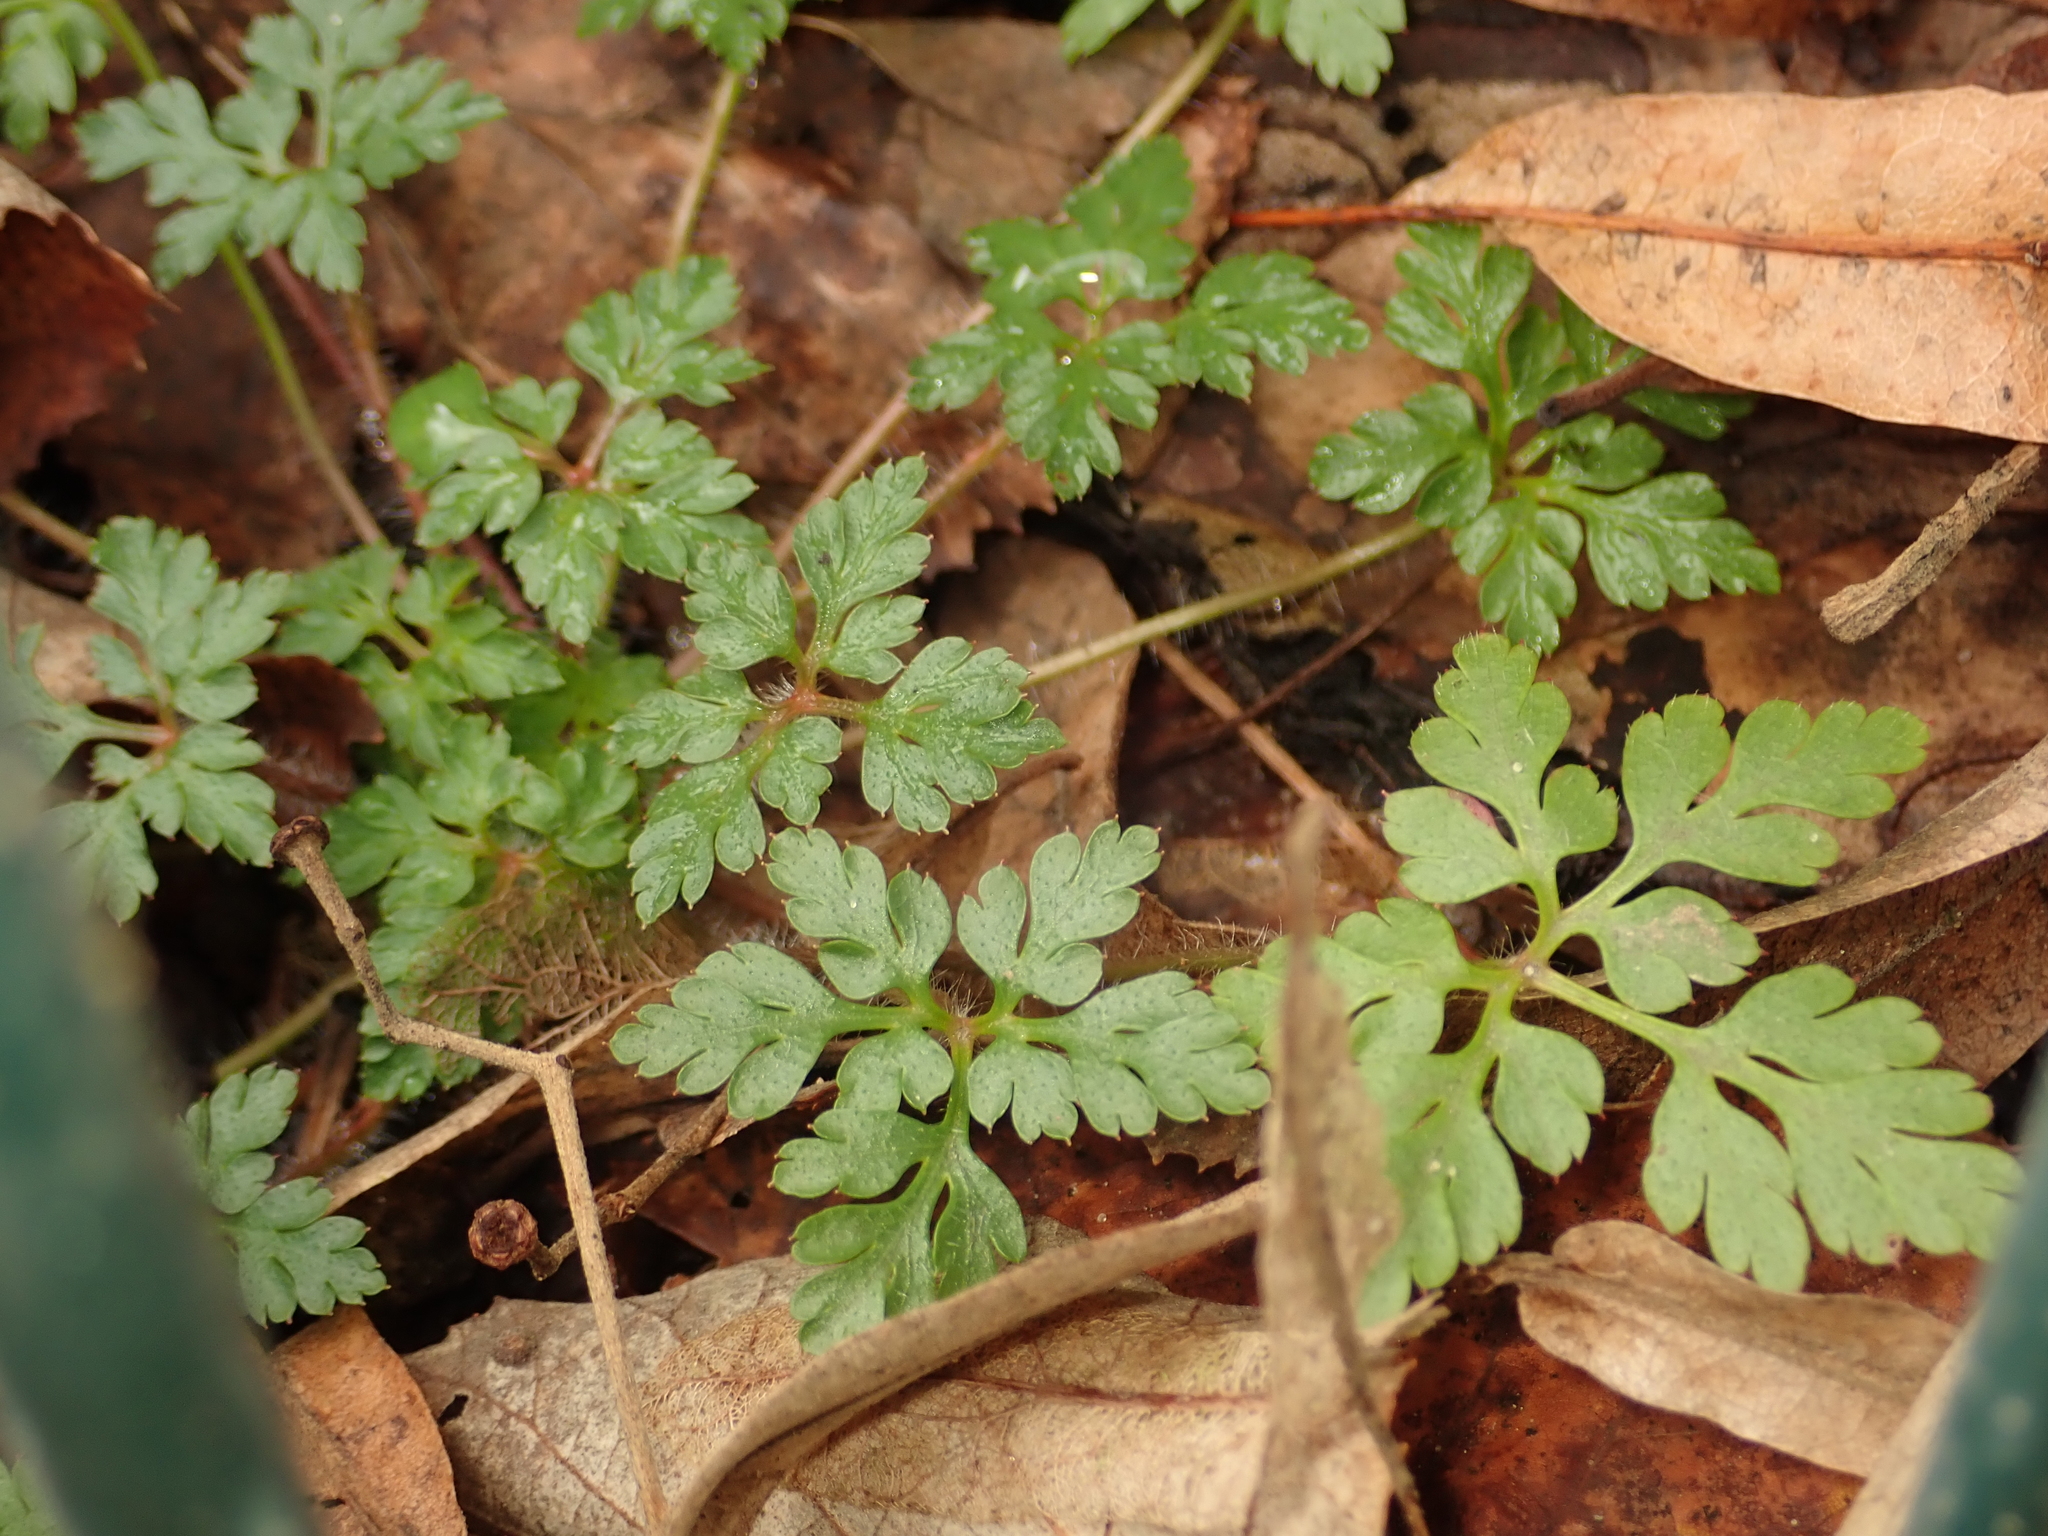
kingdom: Plantae
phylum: Tracheophyta
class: Magnoliopsida
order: Geraniales
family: Geraniaceae
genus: Geranium
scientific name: Geranium robertianum
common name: Herb-robert
